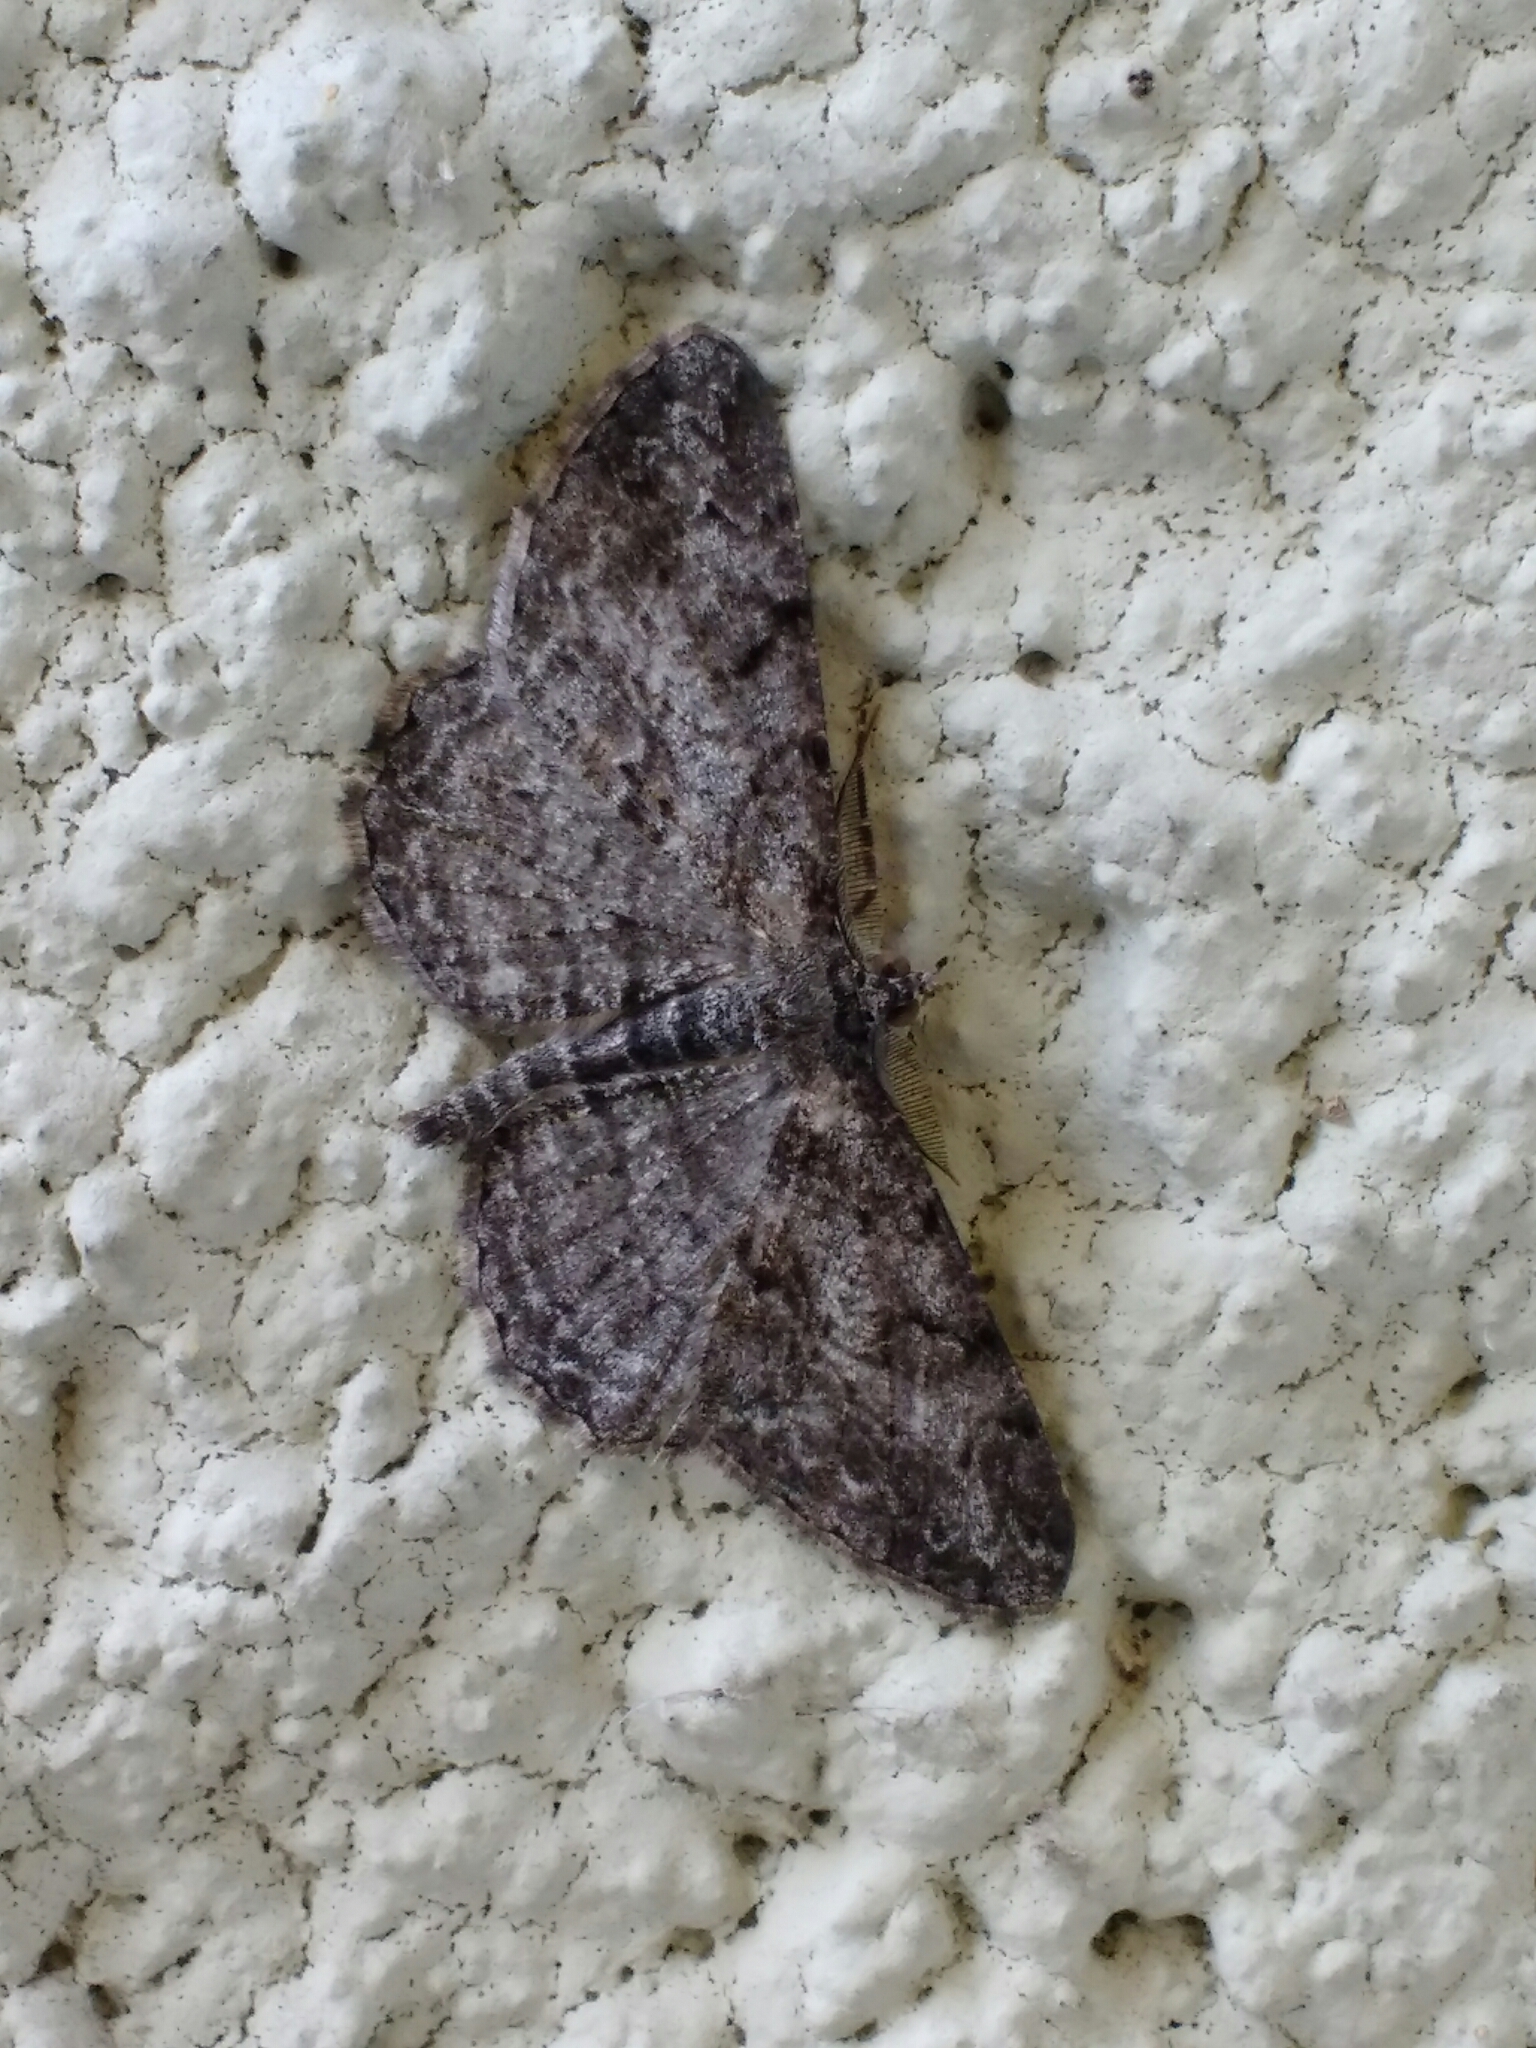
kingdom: Animalia
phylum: Arthropoda
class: Insecta
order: Lepidoptera
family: Geometridae
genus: Peribatodes
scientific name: Peribatodes rhomboidaria
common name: Willow beauty
